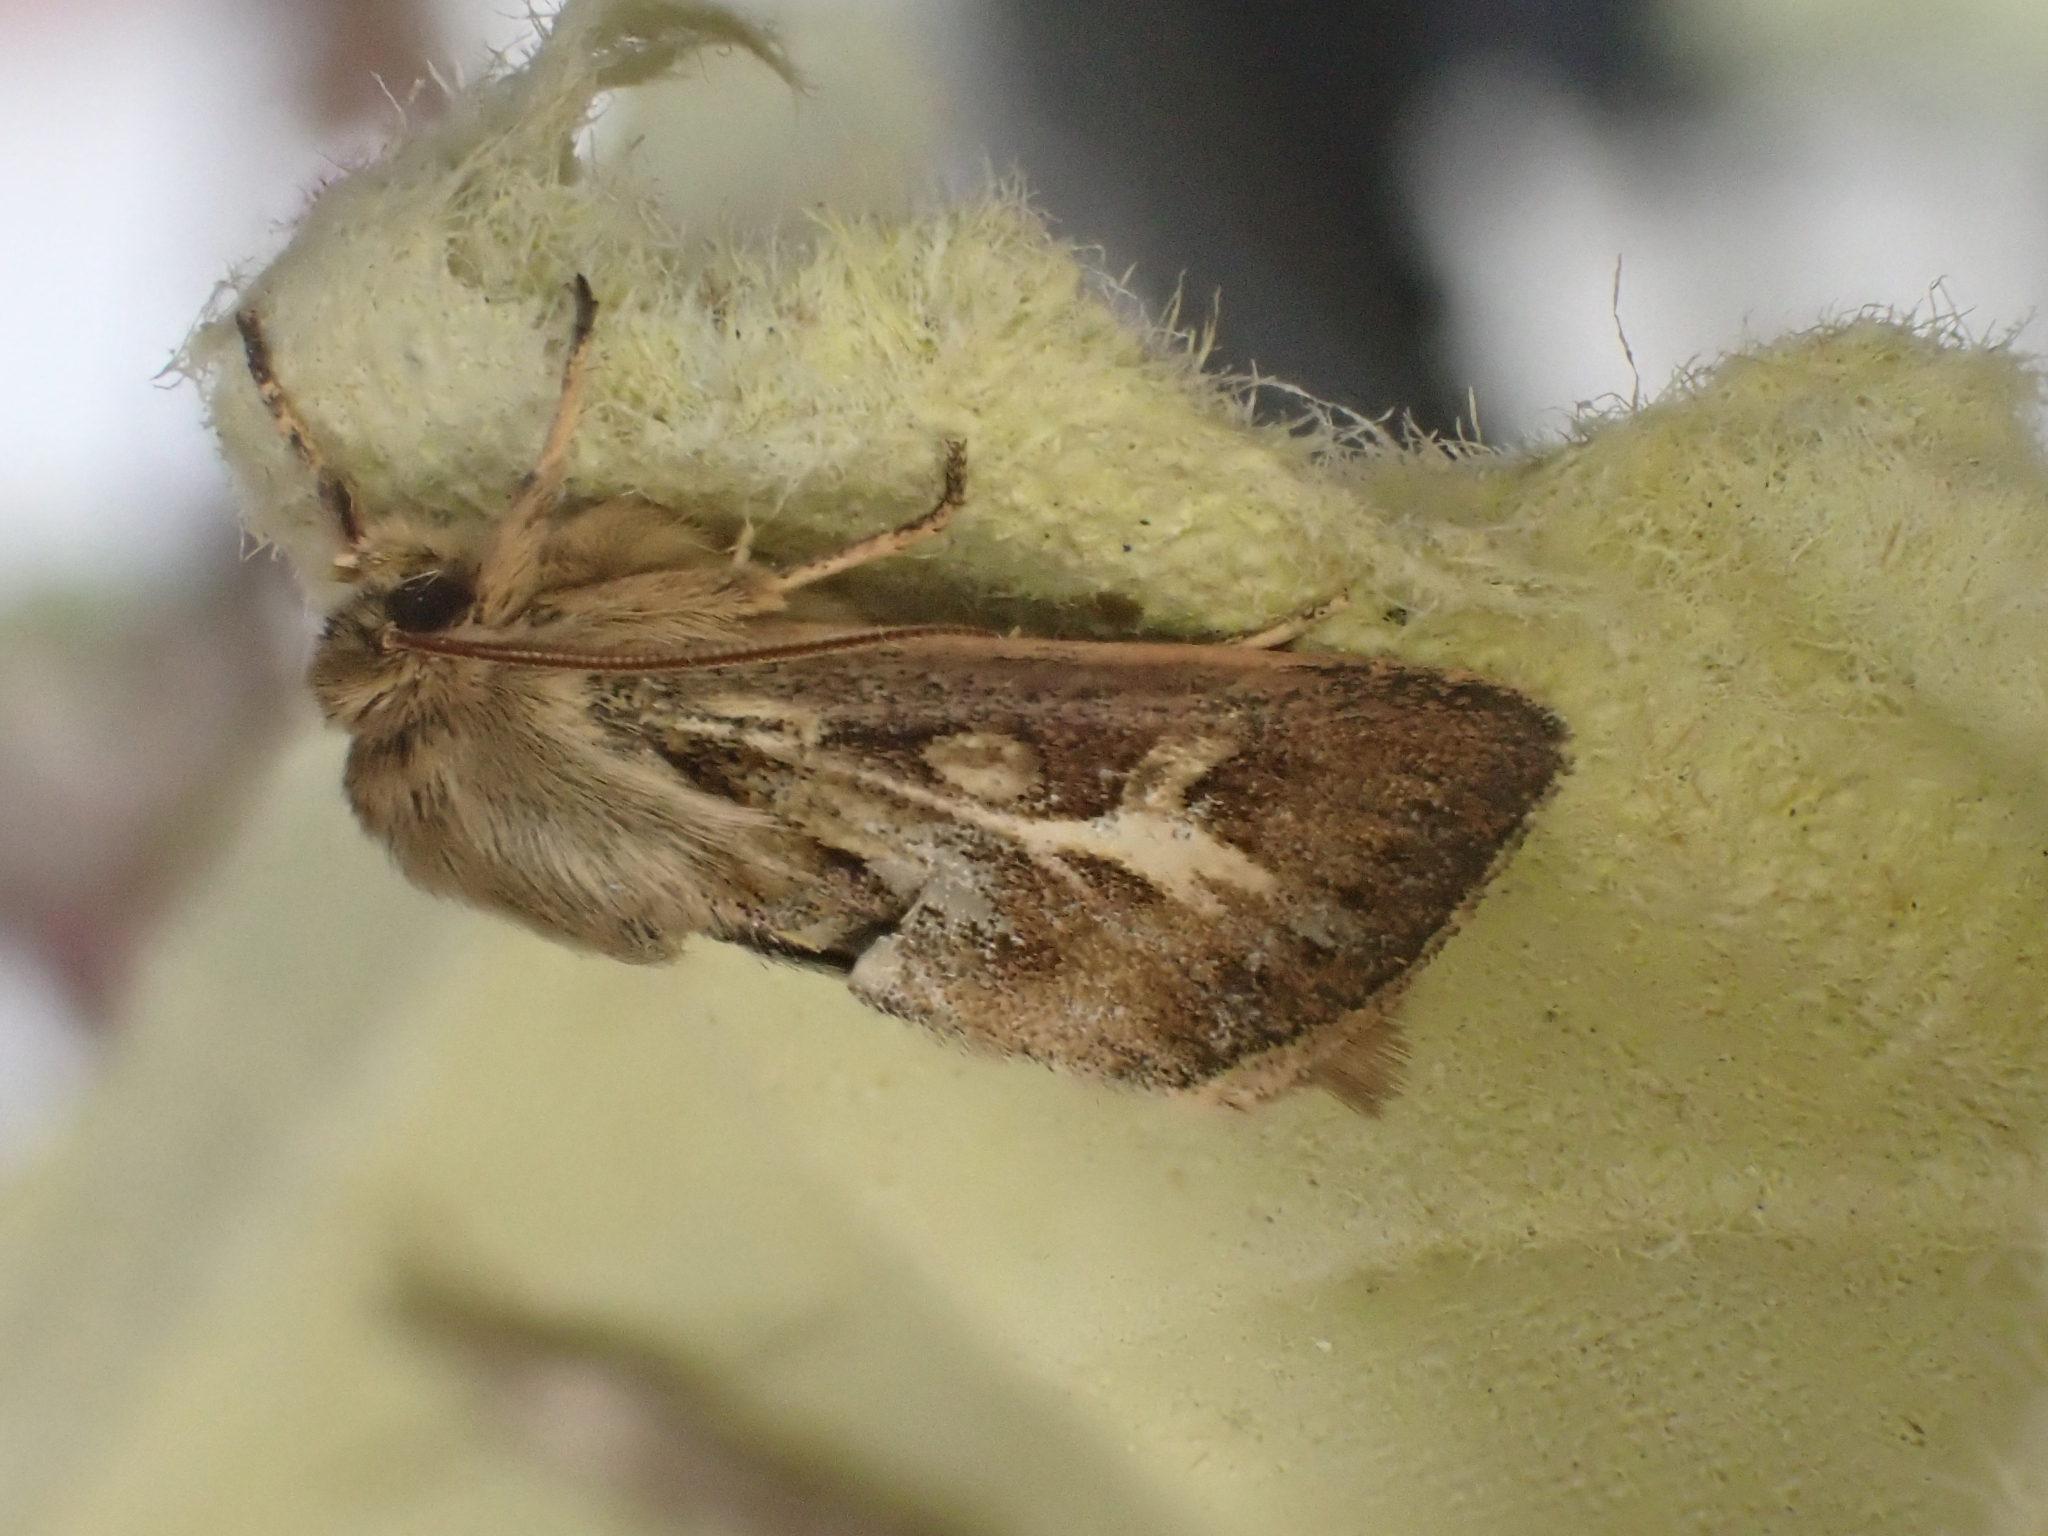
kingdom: Animalia
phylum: Arthropoda
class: Insecta
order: Lepidoptera
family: Noctuidae
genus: Cerapteryx
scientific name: Cerapteryx graminis
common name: Antler moth
